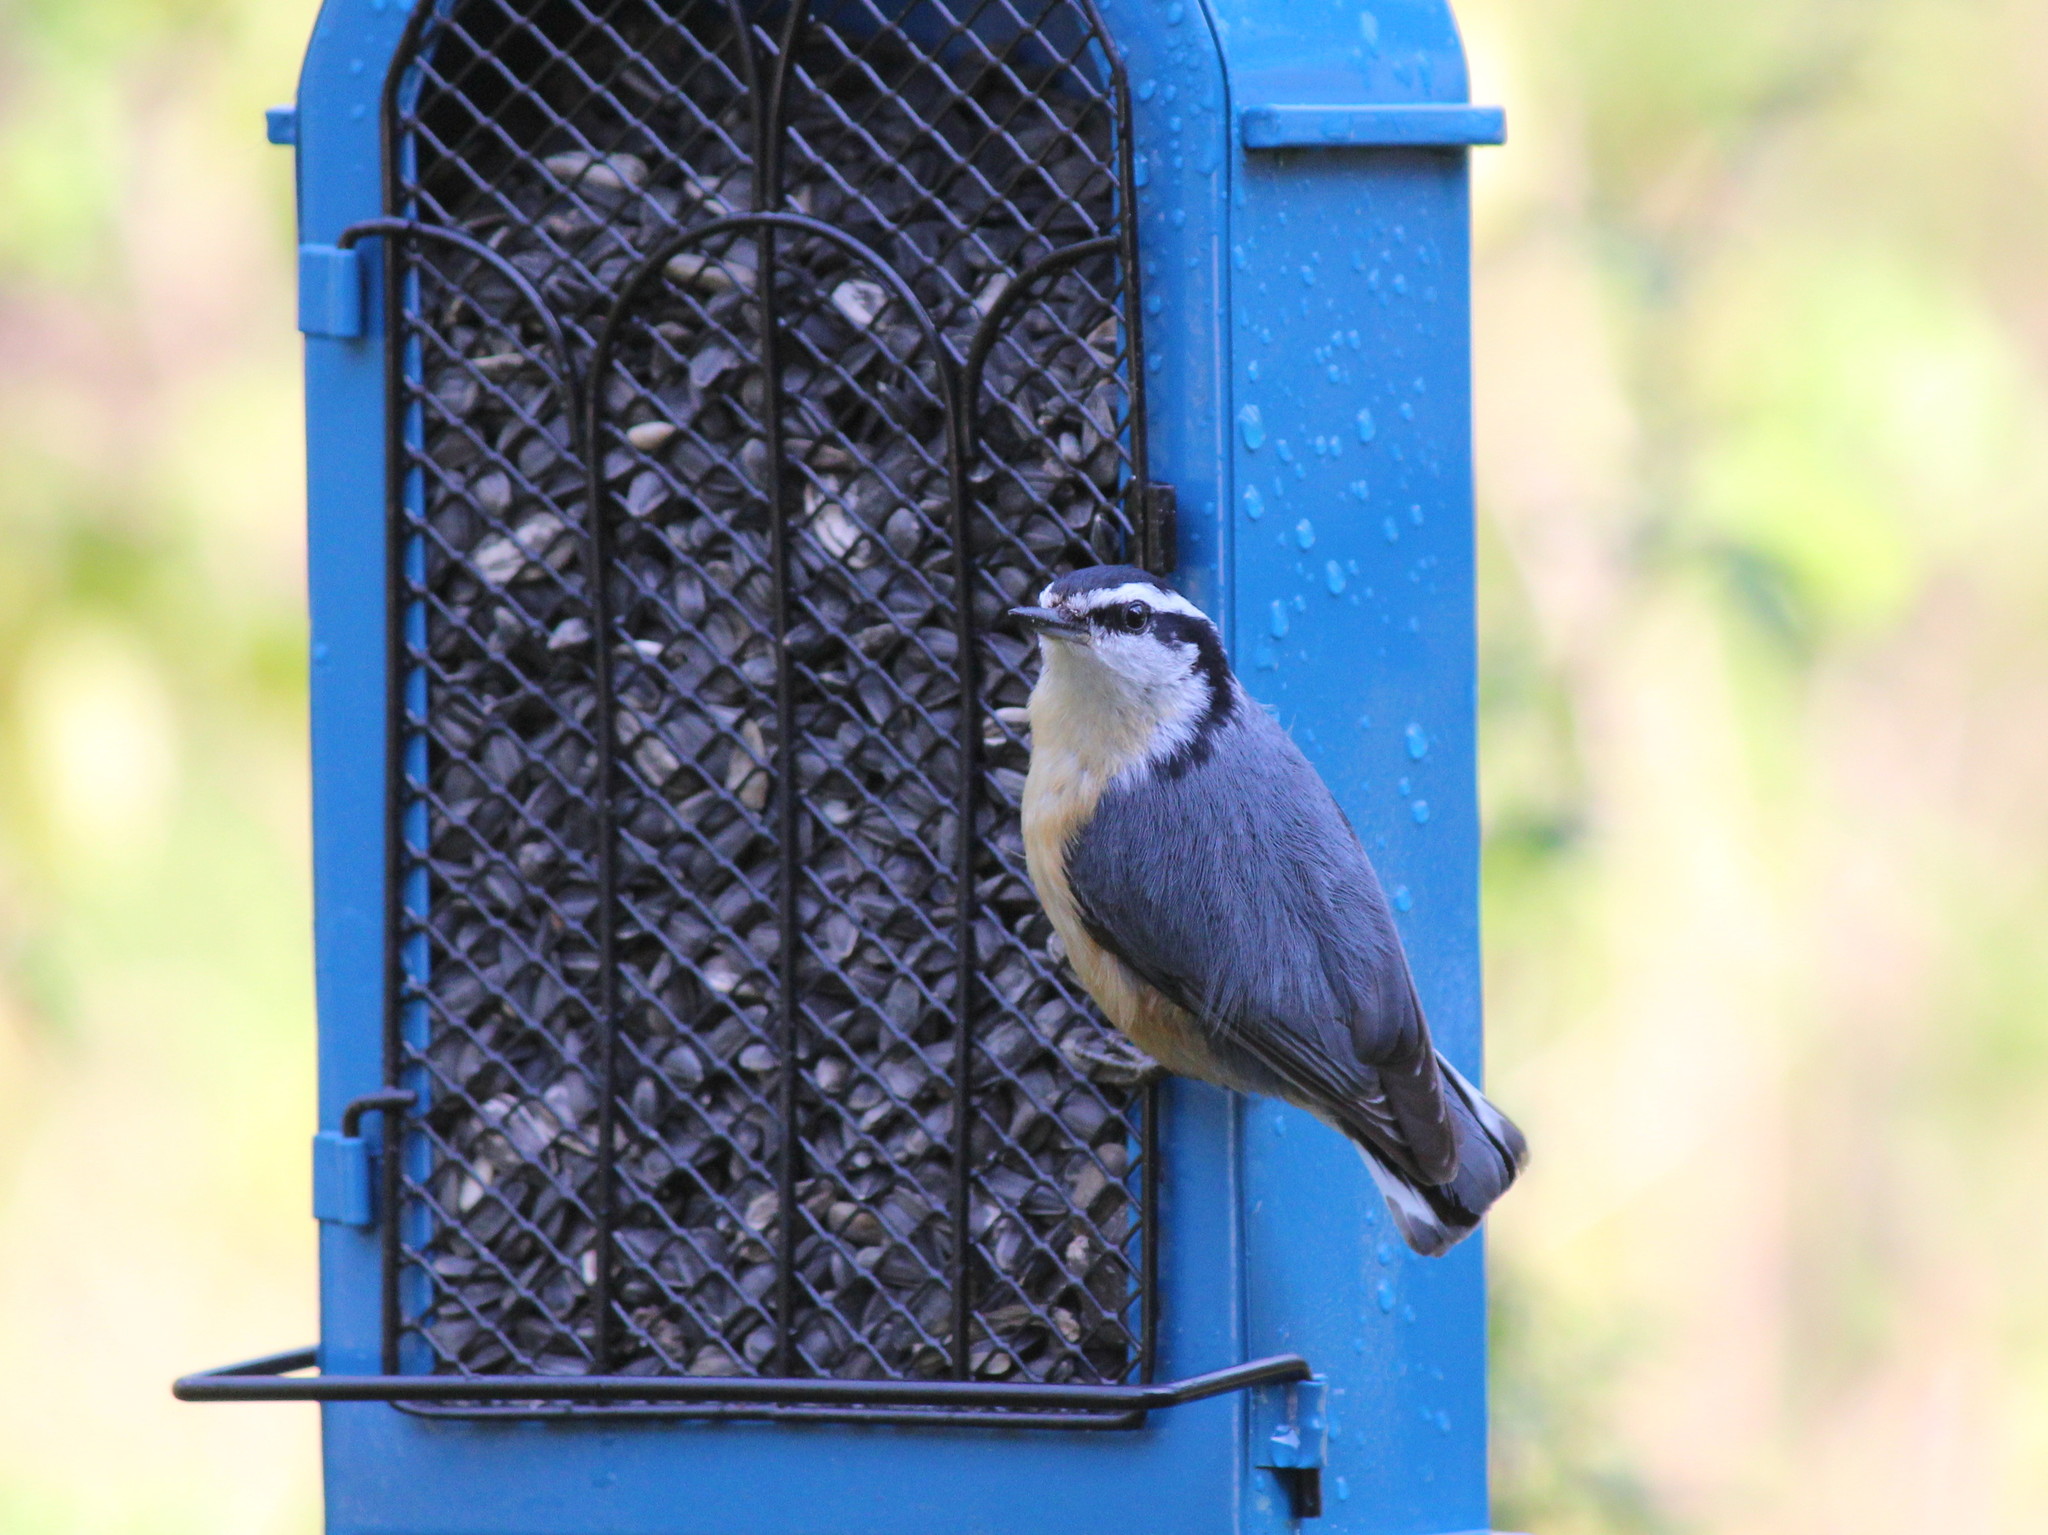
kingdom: Animalia
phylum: Chordata
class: Aves
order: Passeriformes
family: Sittidae
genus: Sitta
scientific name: Sitta canadensis
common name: Red-breasted nuthatch
